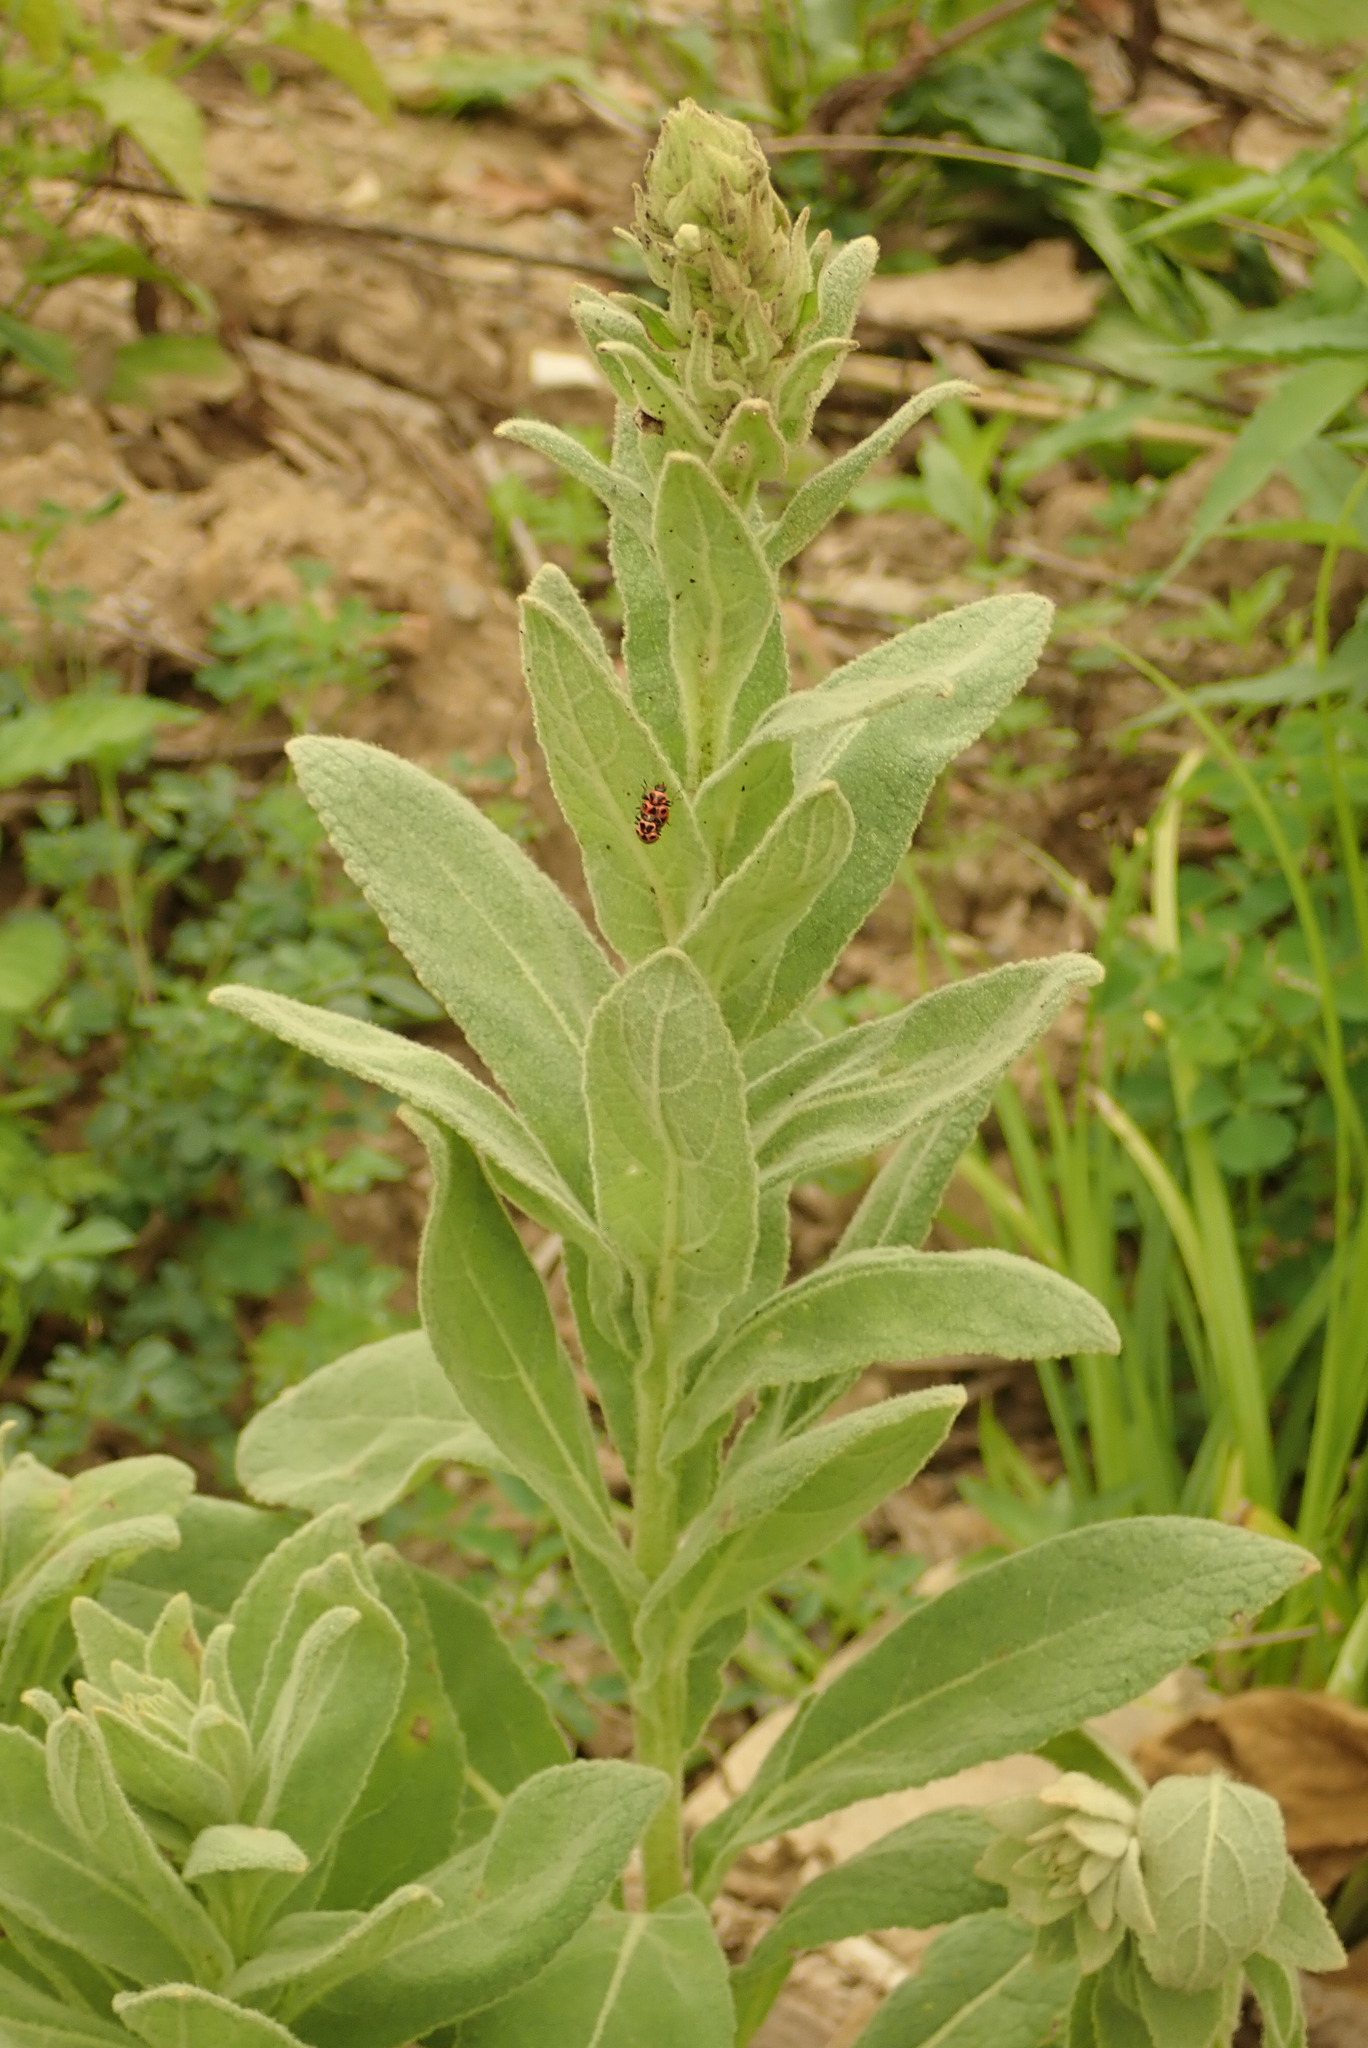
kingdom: Plantae
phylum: Tracheophyta
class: Magnoliopsida
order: Lamiales
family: Scrophulariaceae
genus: Verbascum
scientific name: Verbascum thapsus
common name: Common mullein
